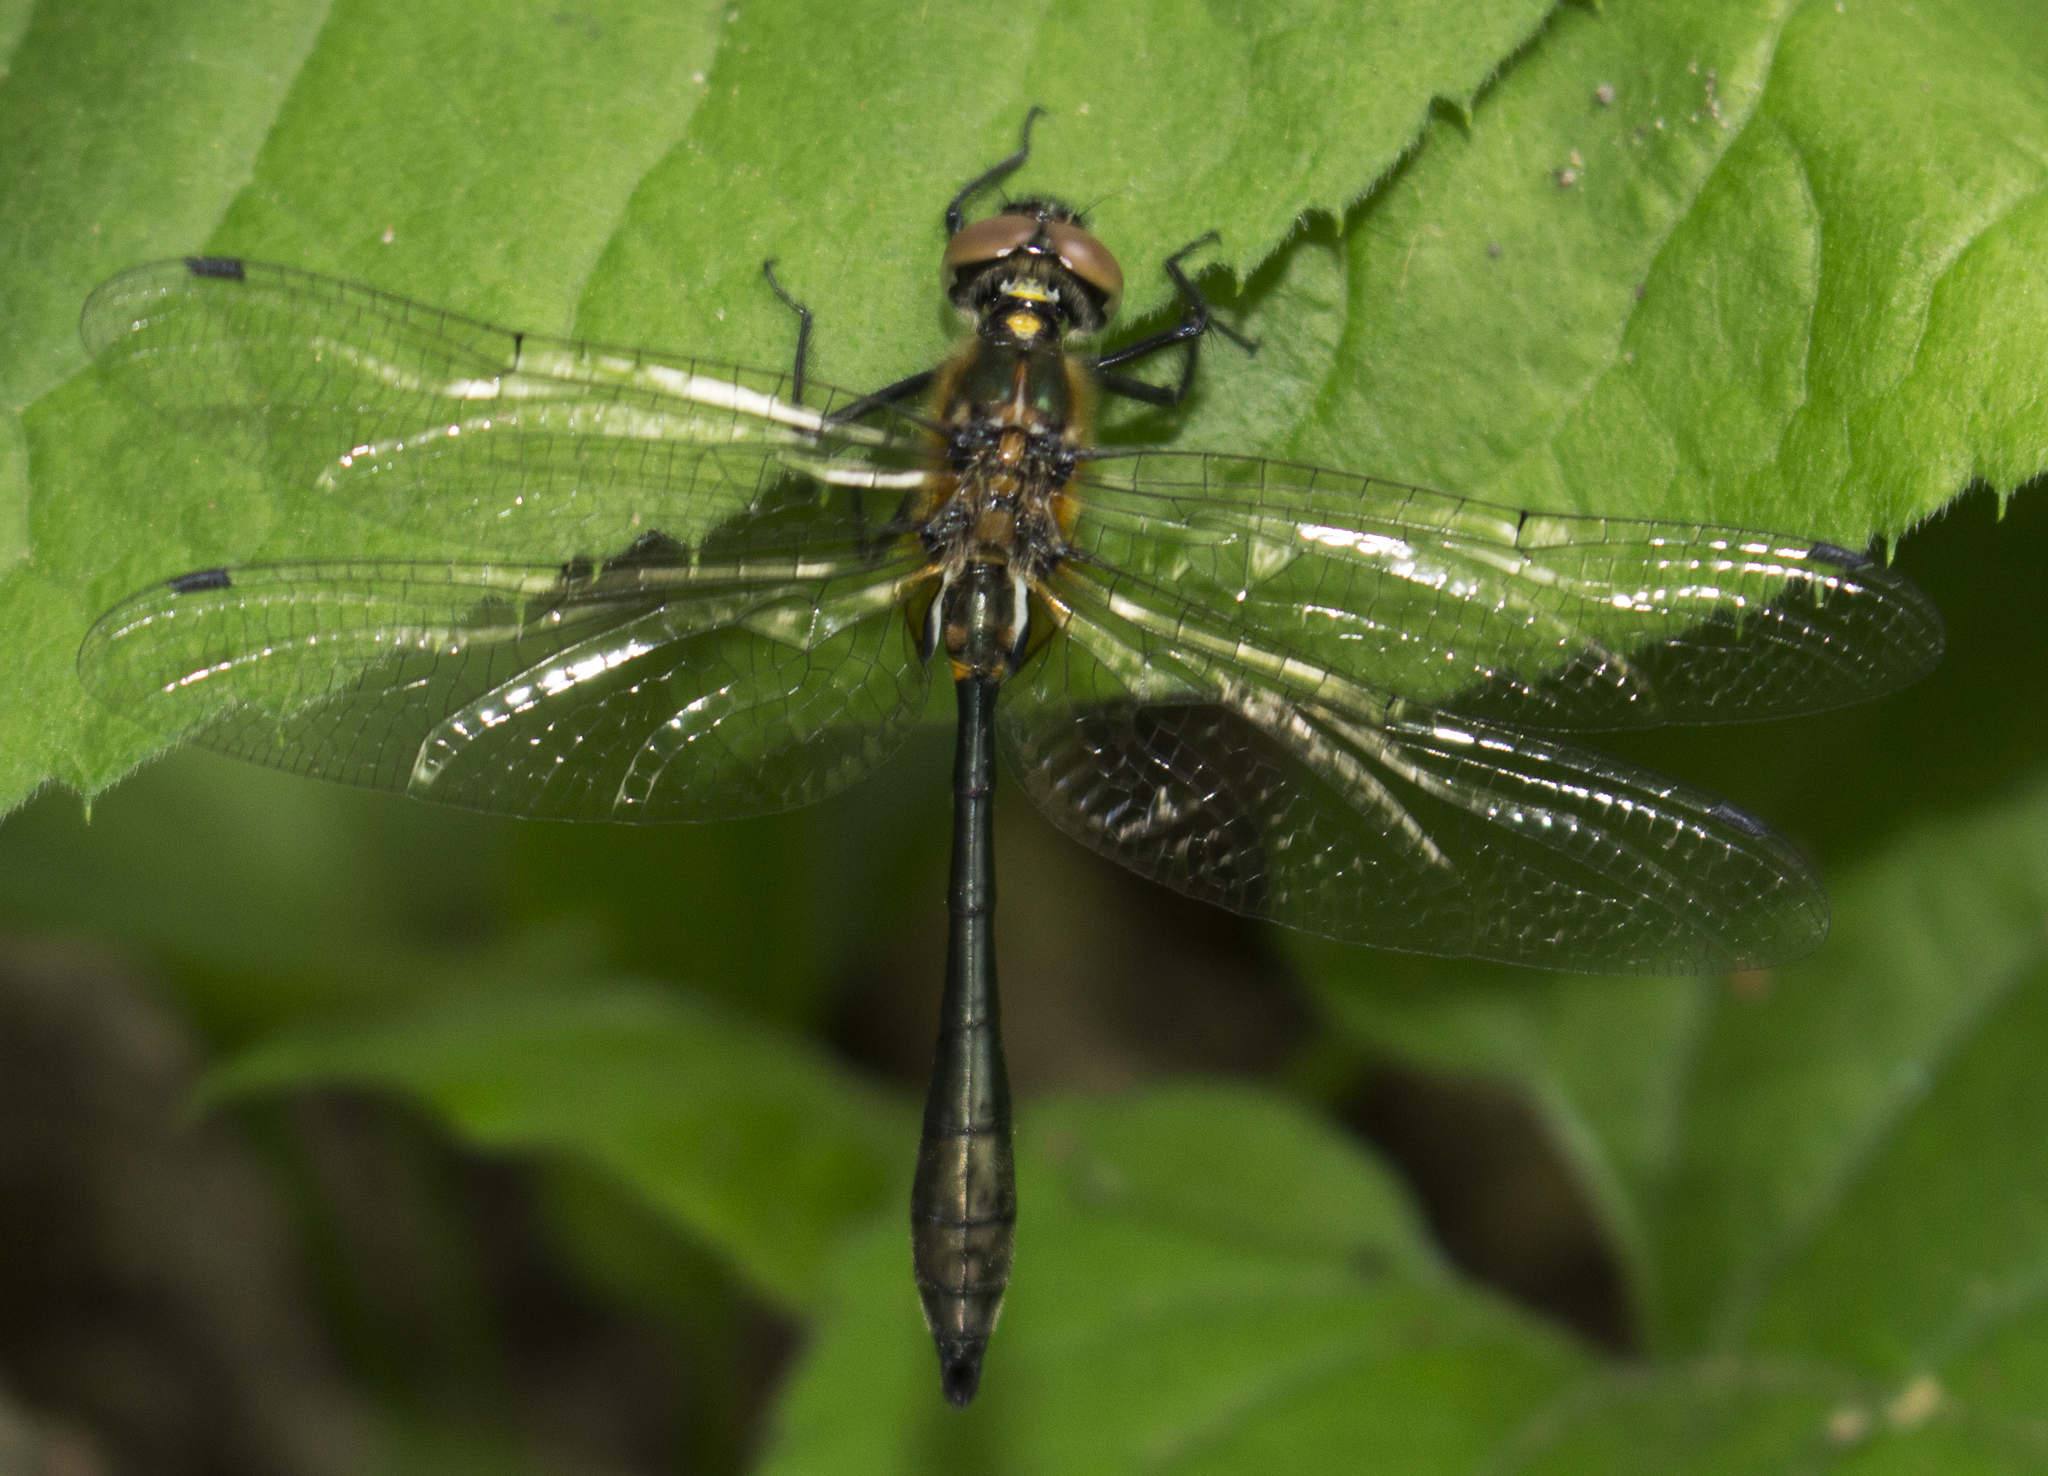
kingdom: Animalia
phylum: Arthropoda
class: Insecta
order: Odonata
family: Corduliidae
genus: Dorocordulia
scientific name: Dorocordulia libera
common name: Racket-tailed emerald
